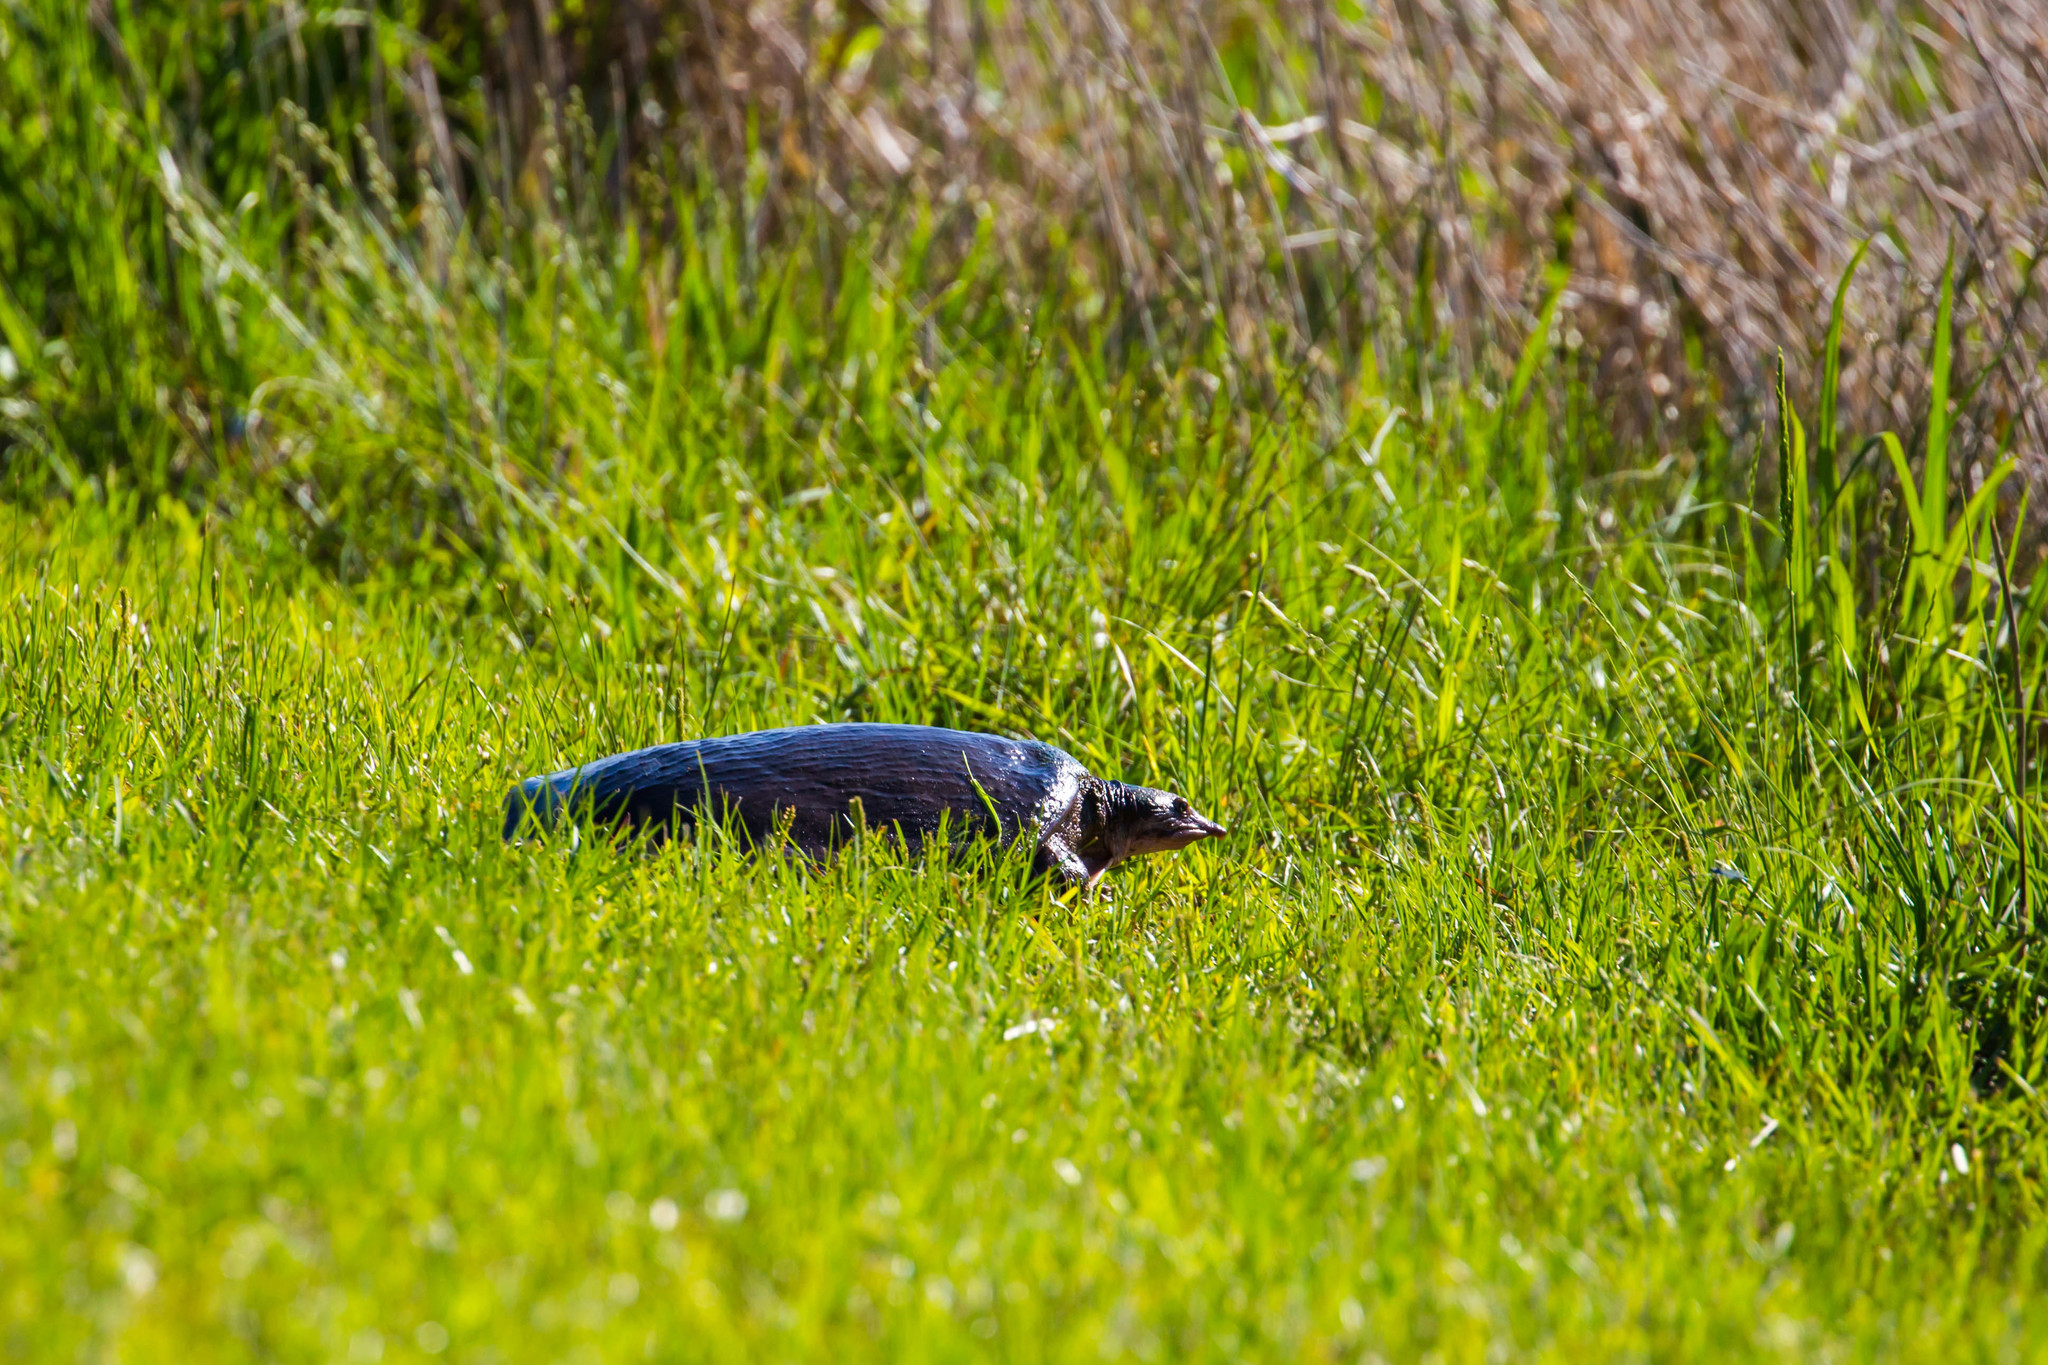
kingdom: Animalia
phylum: Chordata
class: Testudines
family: Trionychidae
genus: Apalone
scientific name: Apalone ferox
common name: Florida softshell turtle
